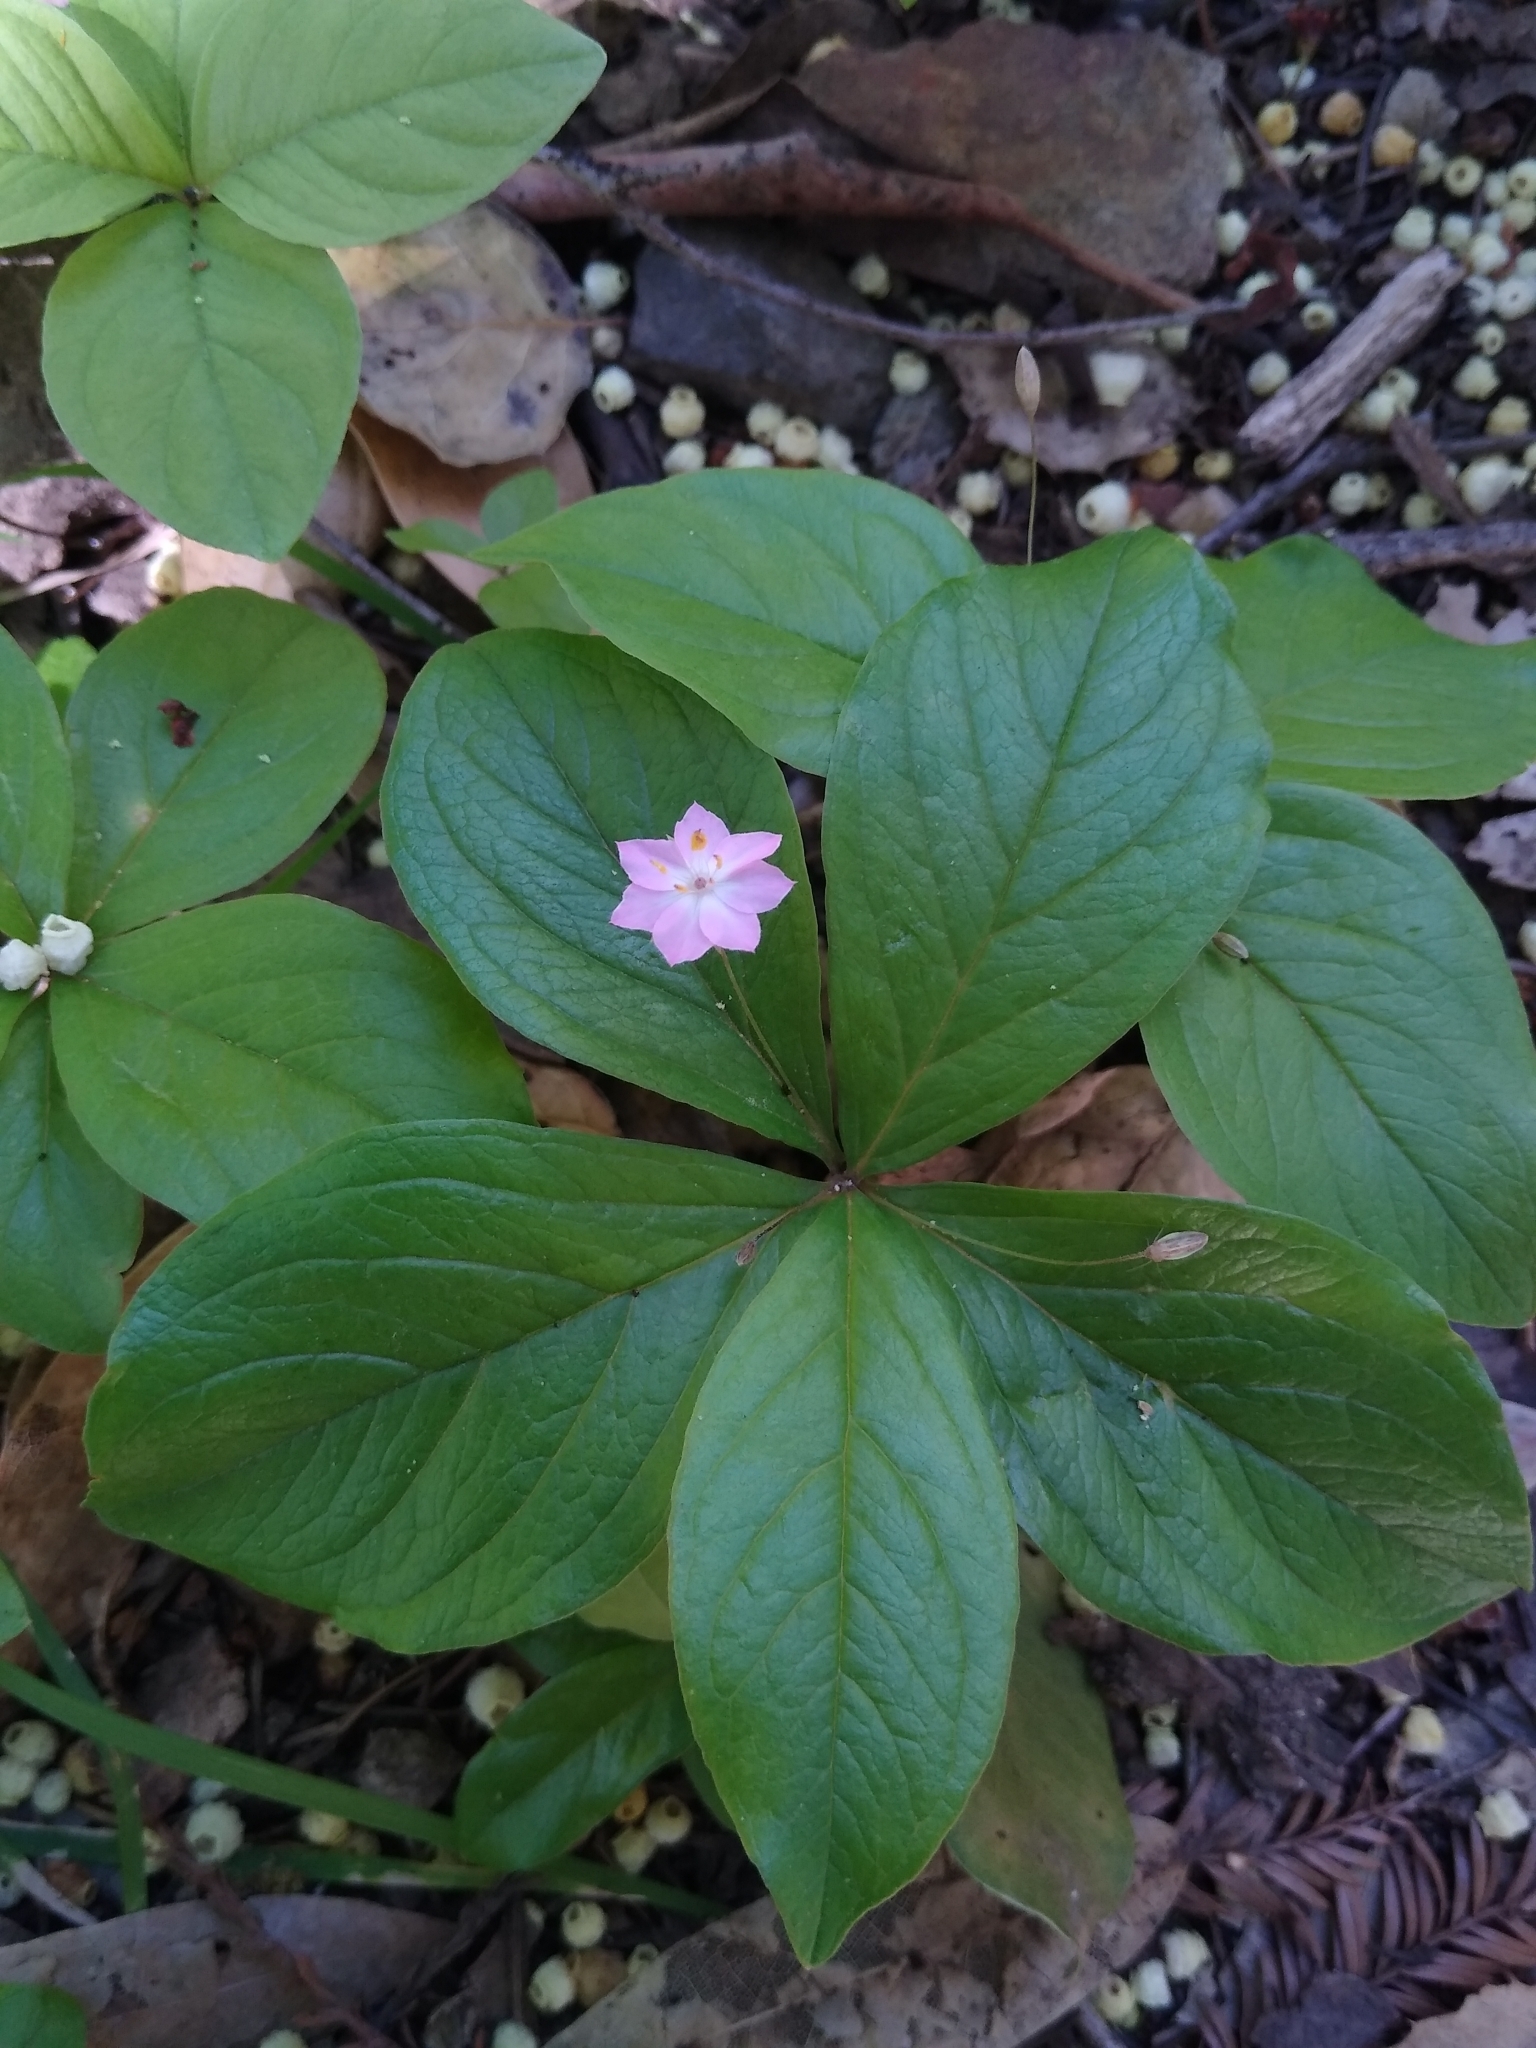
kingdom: Plantae
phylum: Tracheophyta
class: Magnoliopsida
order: Ericales
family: Primulaceae
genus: Lysimachia
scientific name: Lysimachia latifolia
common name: Pacific starflower
